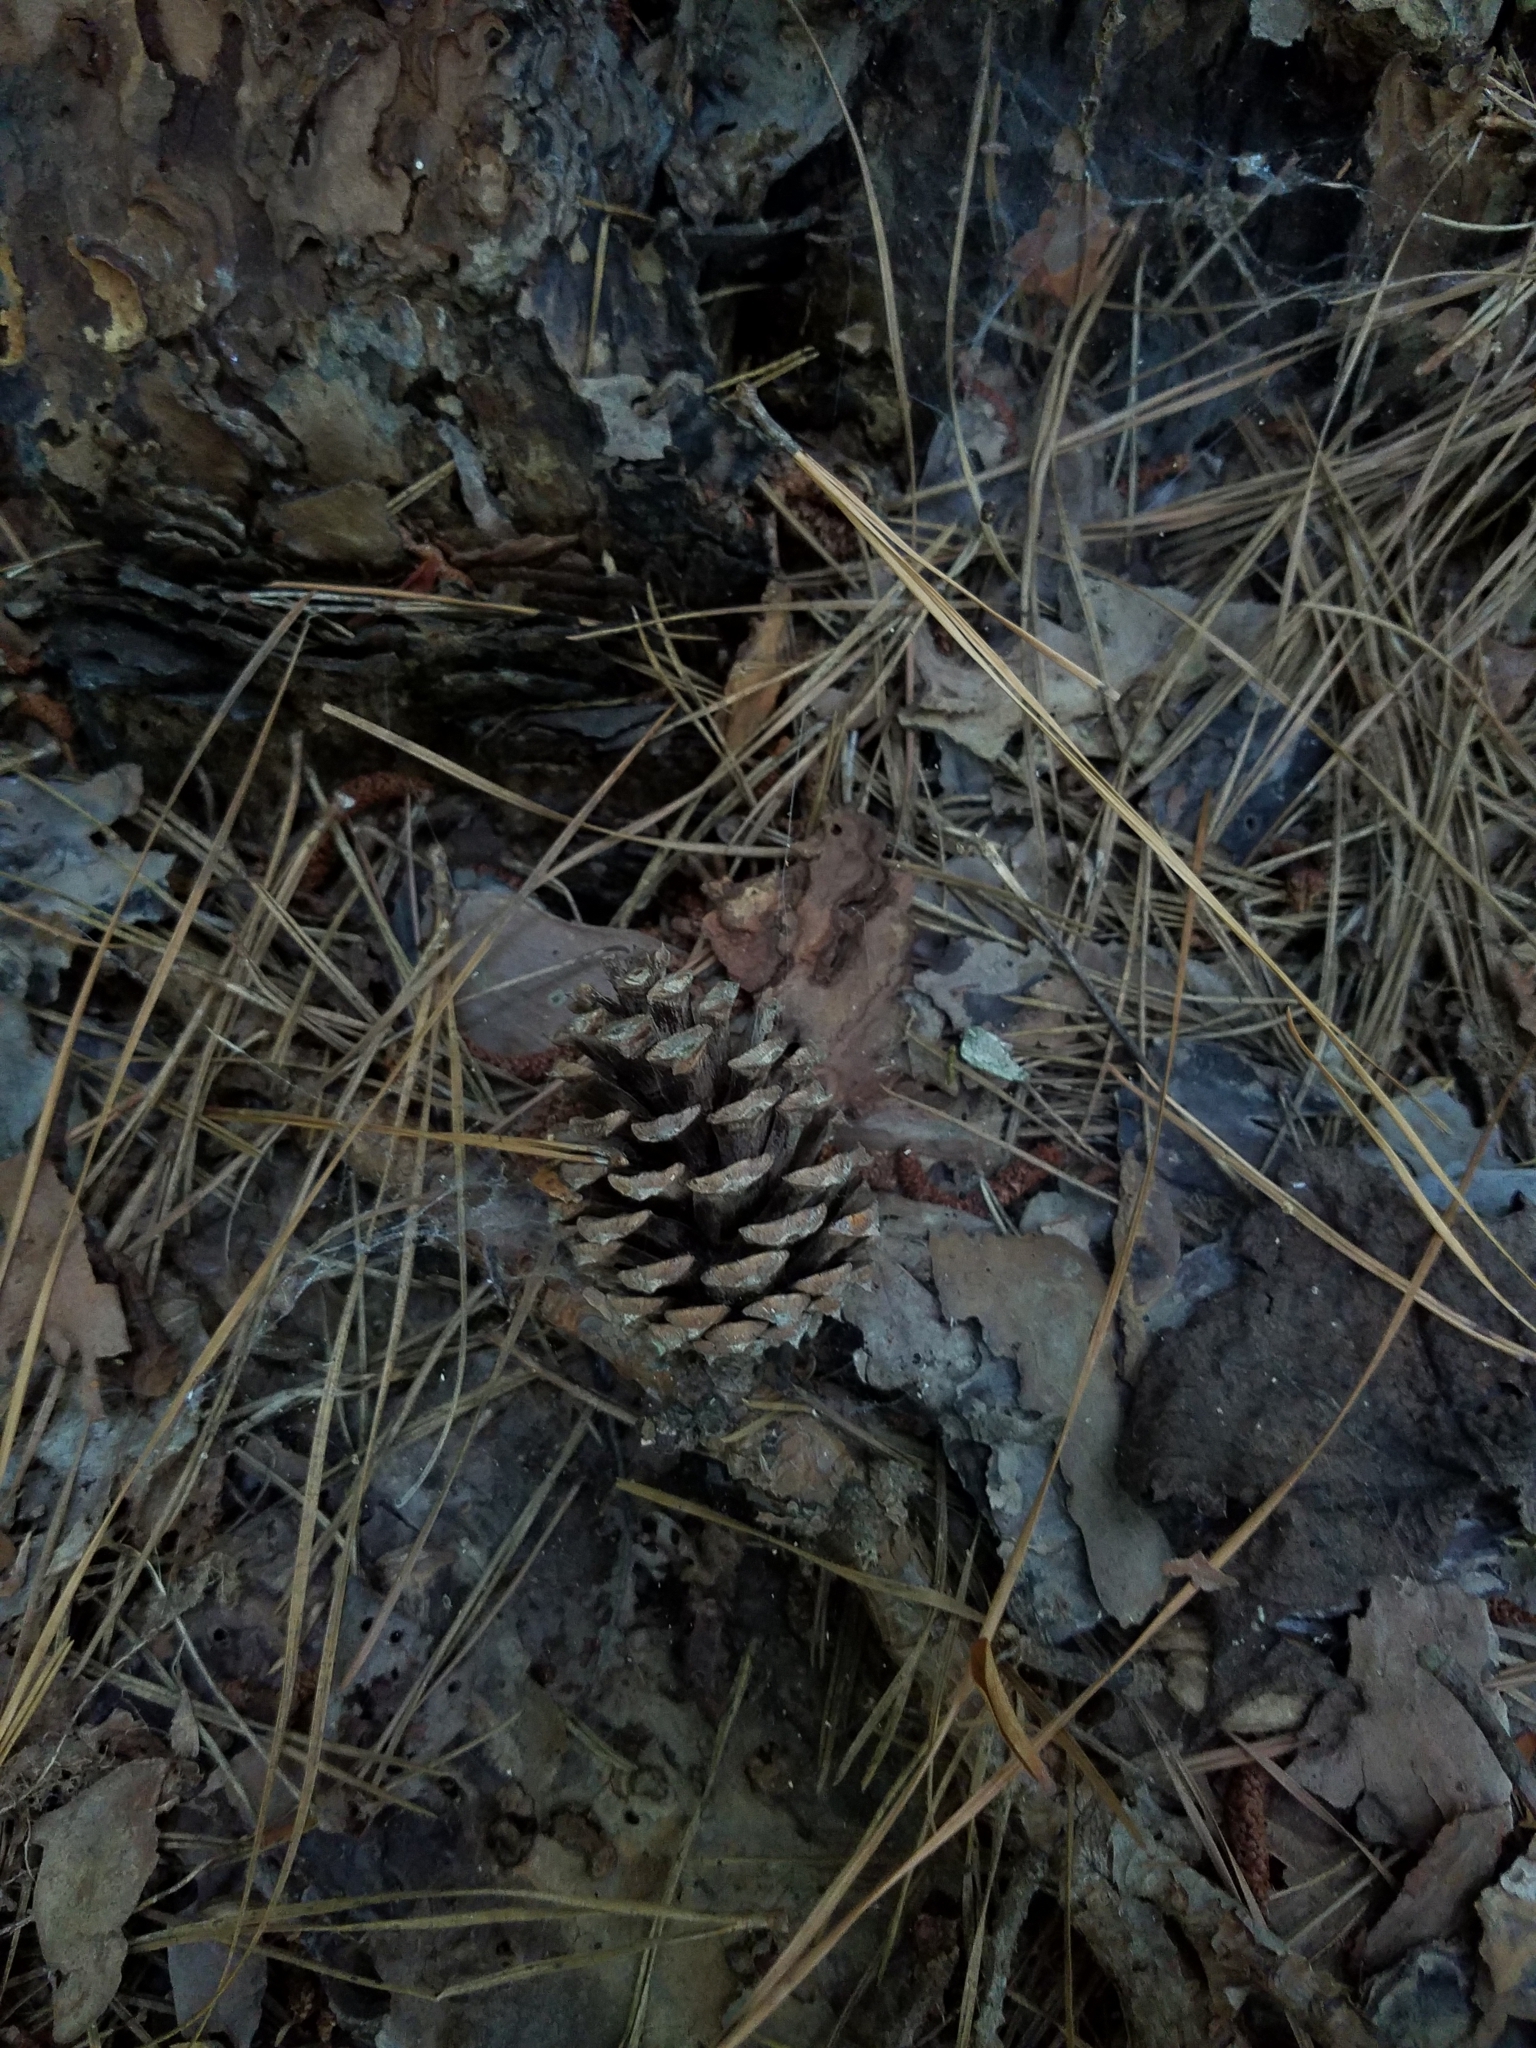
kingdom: Plantae
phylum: Tracheophyta
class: Pinopsida
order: Pinales
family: Pinaceae
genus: Pinus
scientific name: Pinus echinata
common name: Shortleaf pine
